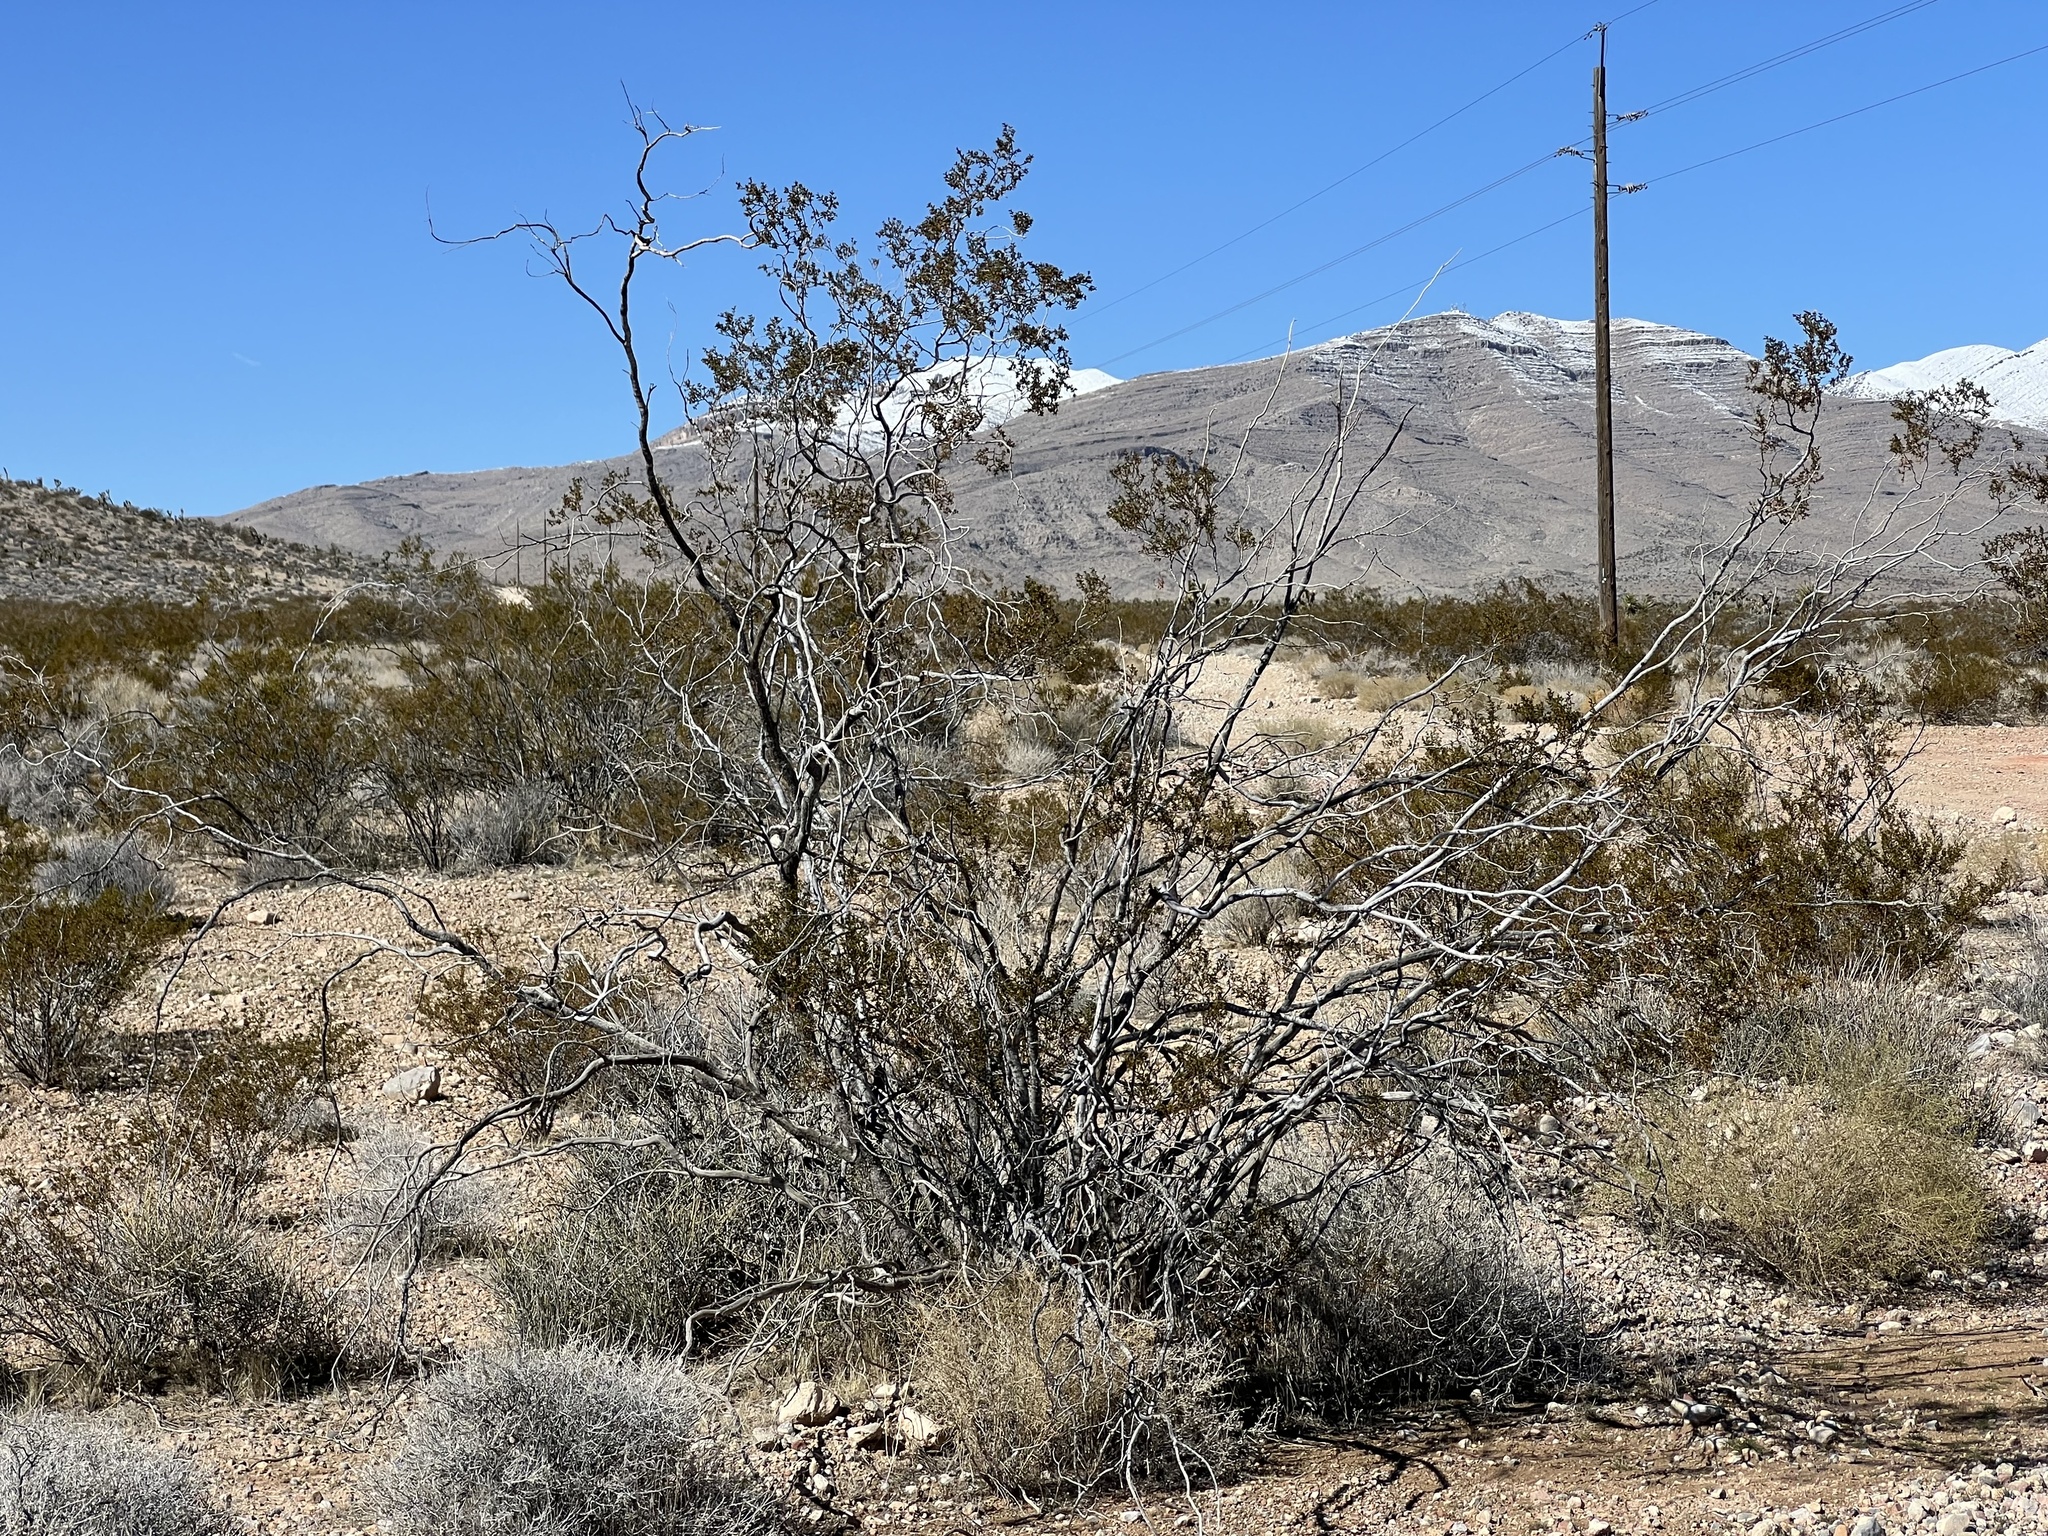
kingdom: Plantae
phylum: Tracheophyta
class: Magnoliopsida
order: Zygophyllales
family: Zygophyllaceae
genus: Larrea
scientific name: Larrea tridentata
